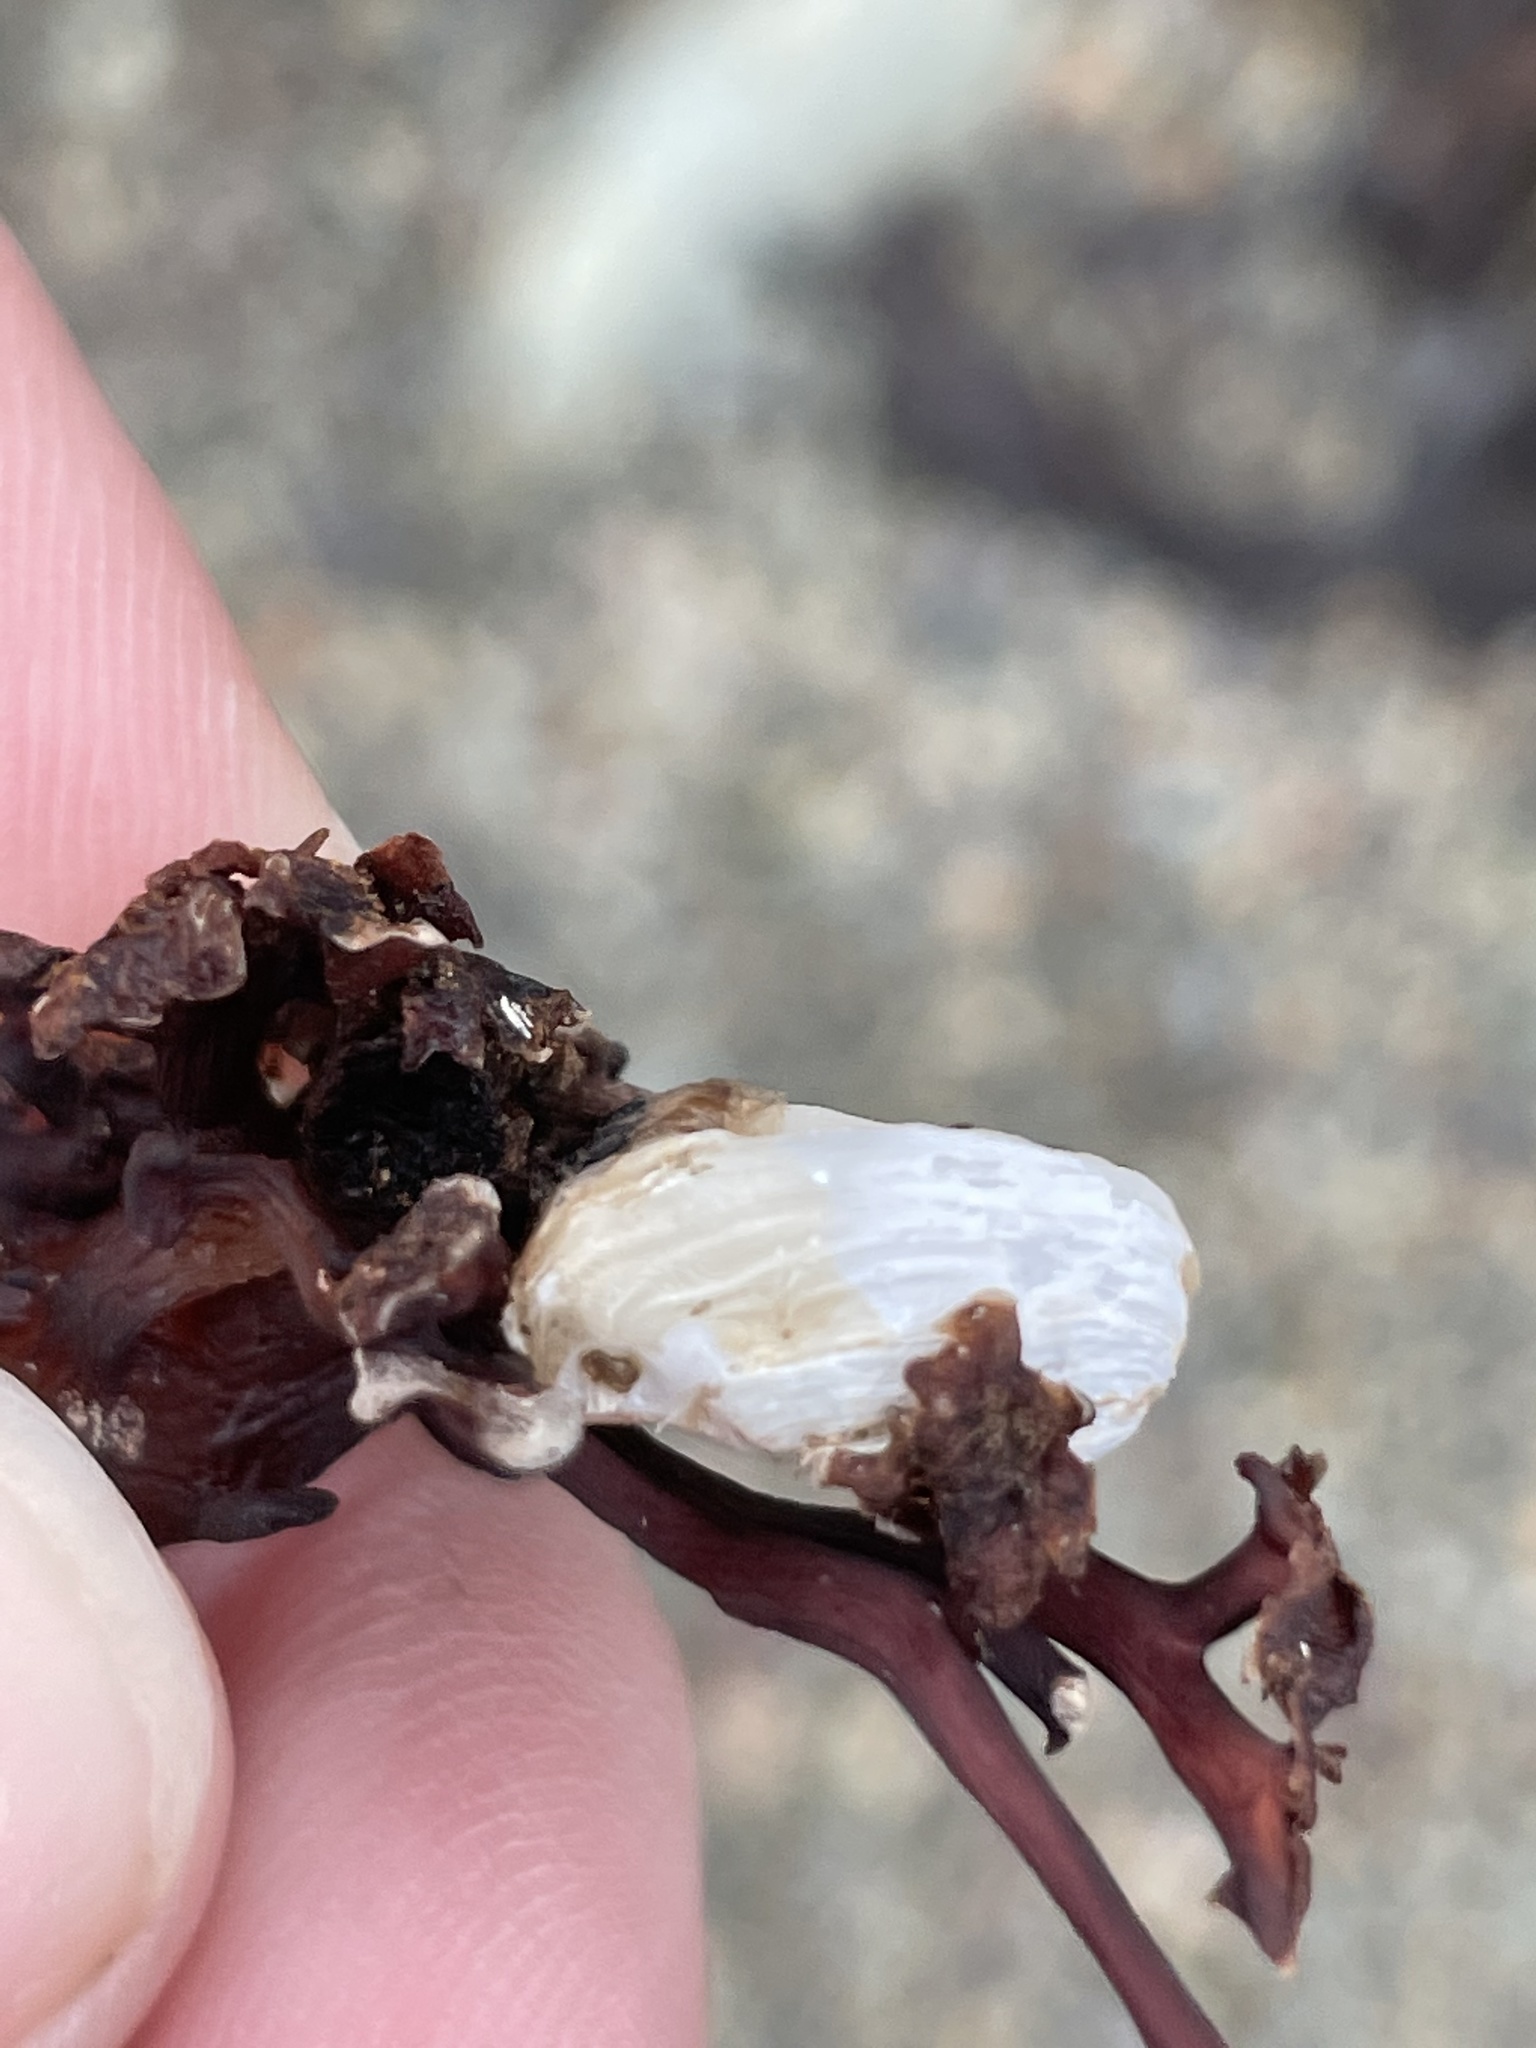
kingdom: Animalia
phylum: Mollusca
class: Bivalvia
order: Adapedonta
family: Hiatellidae
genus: Hiatella
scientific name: Hiatella arctica
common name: Arctic hiatella
